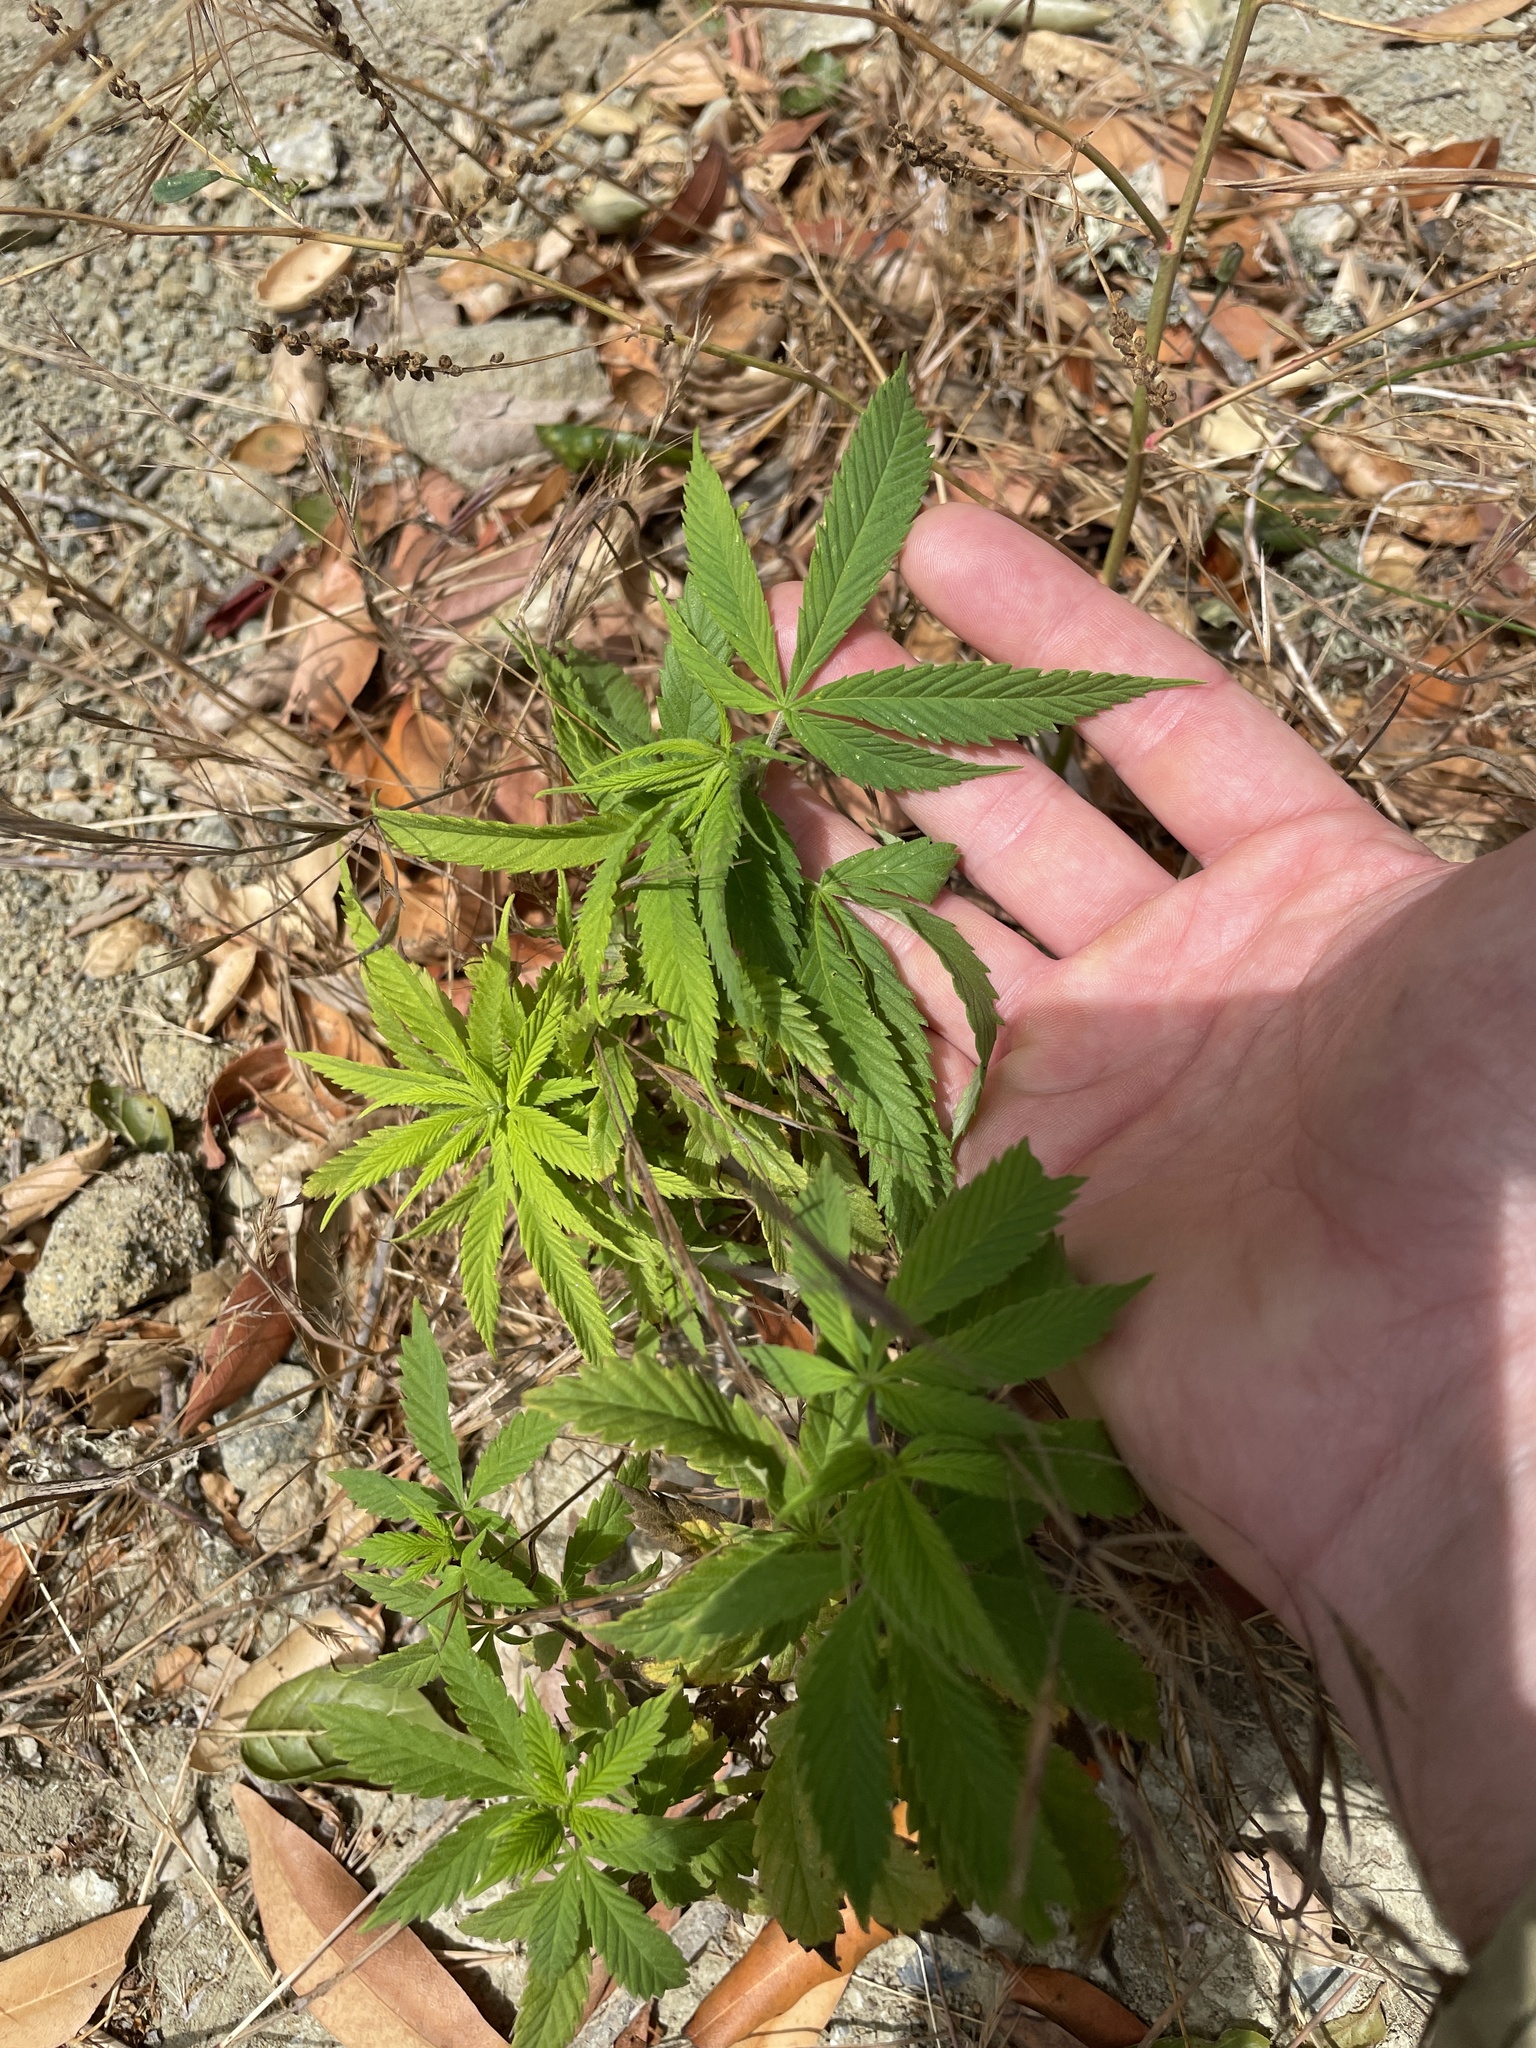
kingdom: Plantae
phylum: Tracheophyta
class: Magnoliopsida
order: Rosales
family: Cannabaceae
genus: Cannabis
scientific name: Cannabis sativa
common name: Hemp
